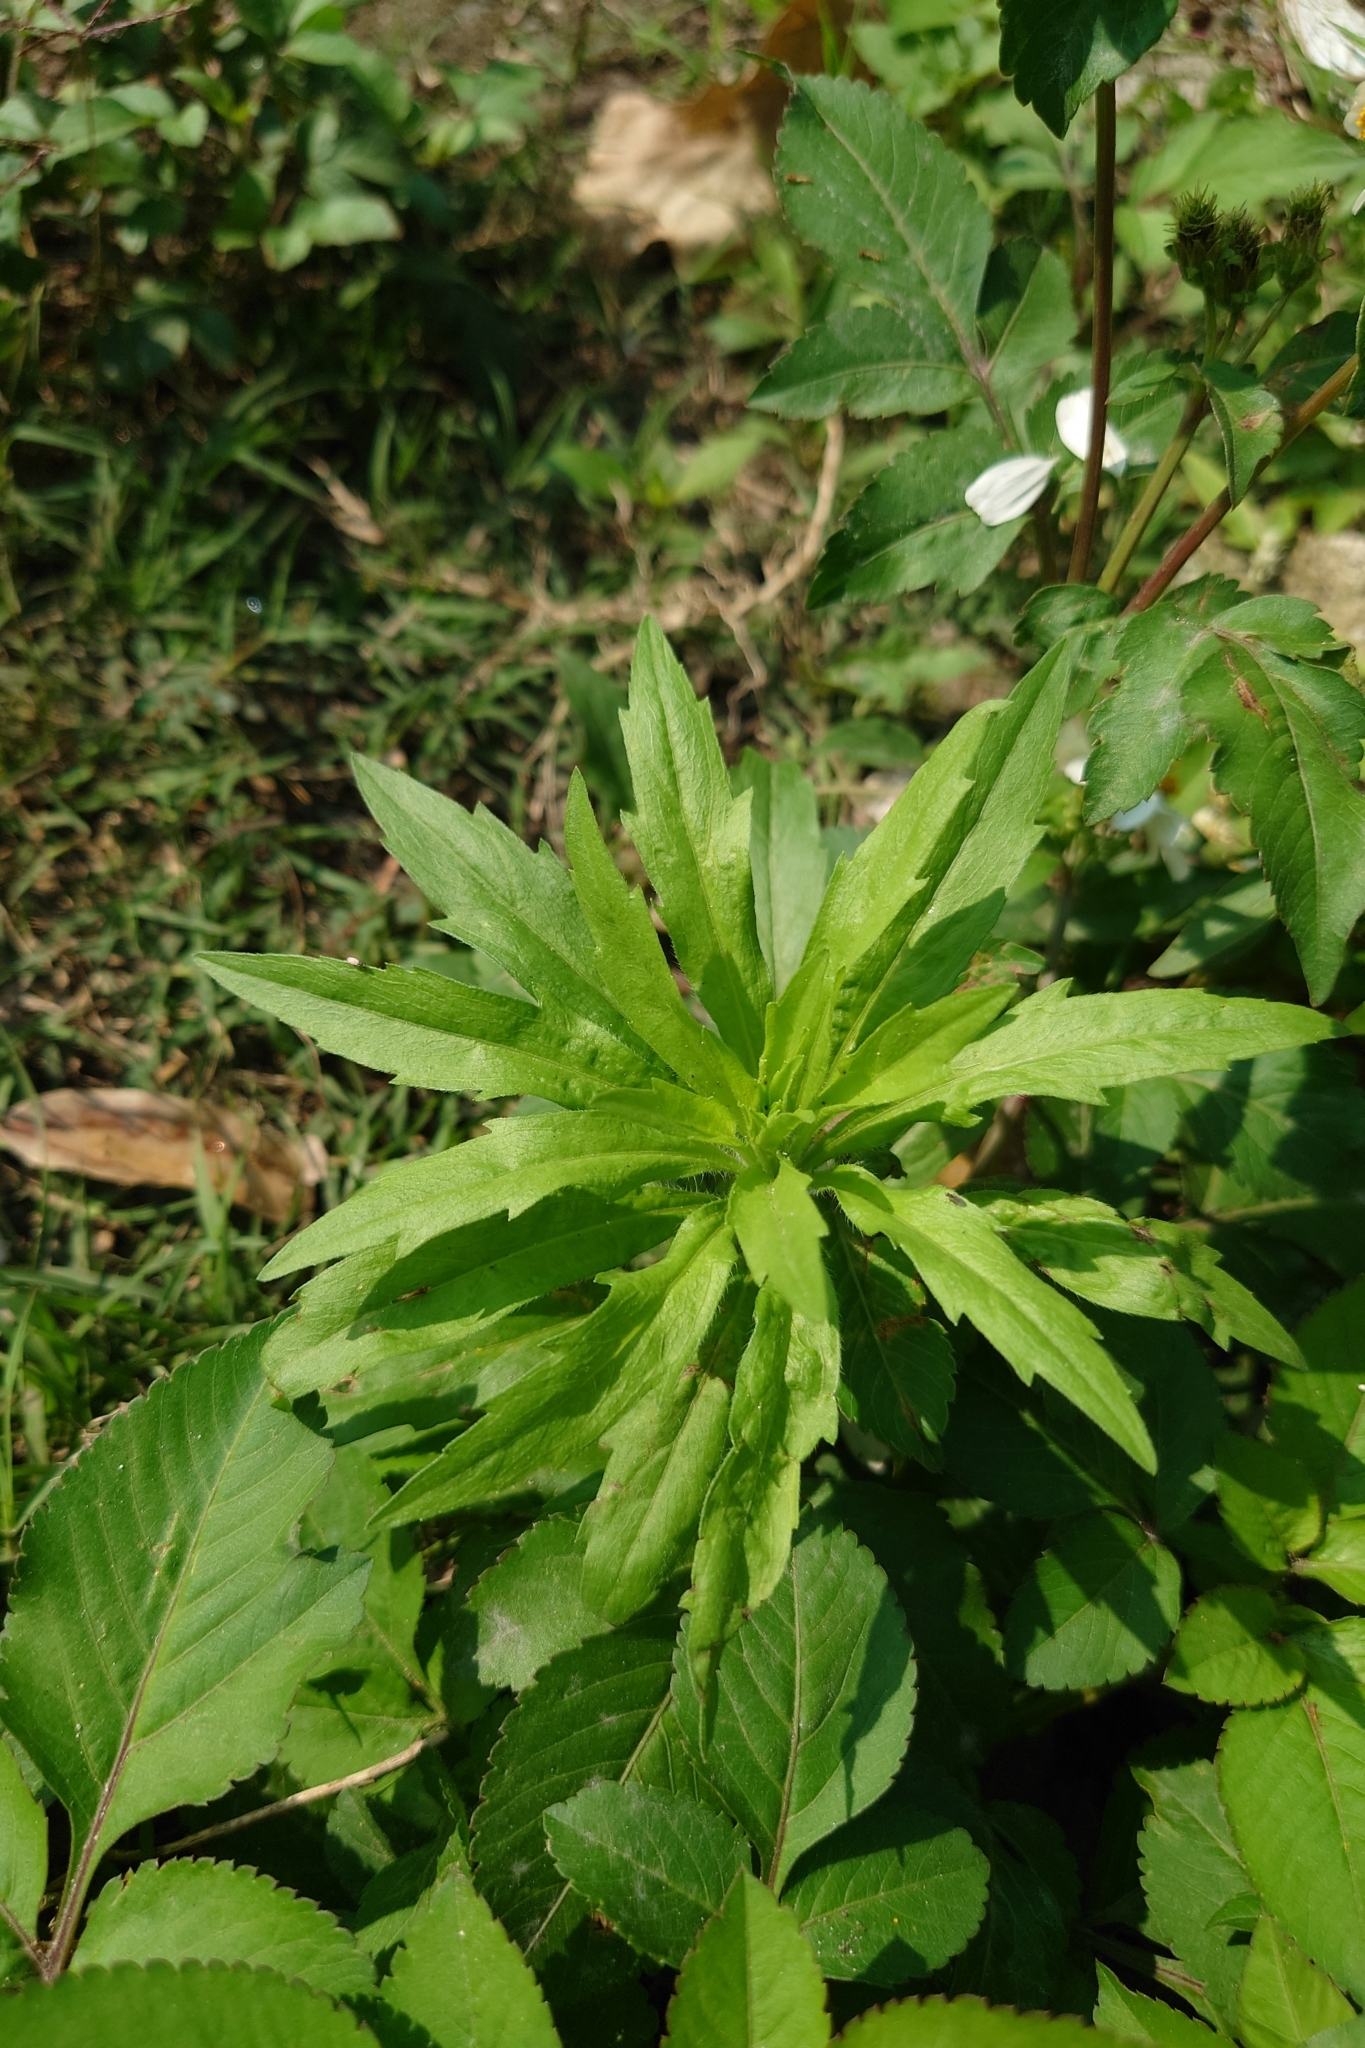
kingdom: Plantae
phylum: Tracheophyta
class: Magnoliopsida
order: Asterales
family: Asteraceae
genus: Erigeron
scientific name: Erigeron sumatrensis
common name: Daisy
